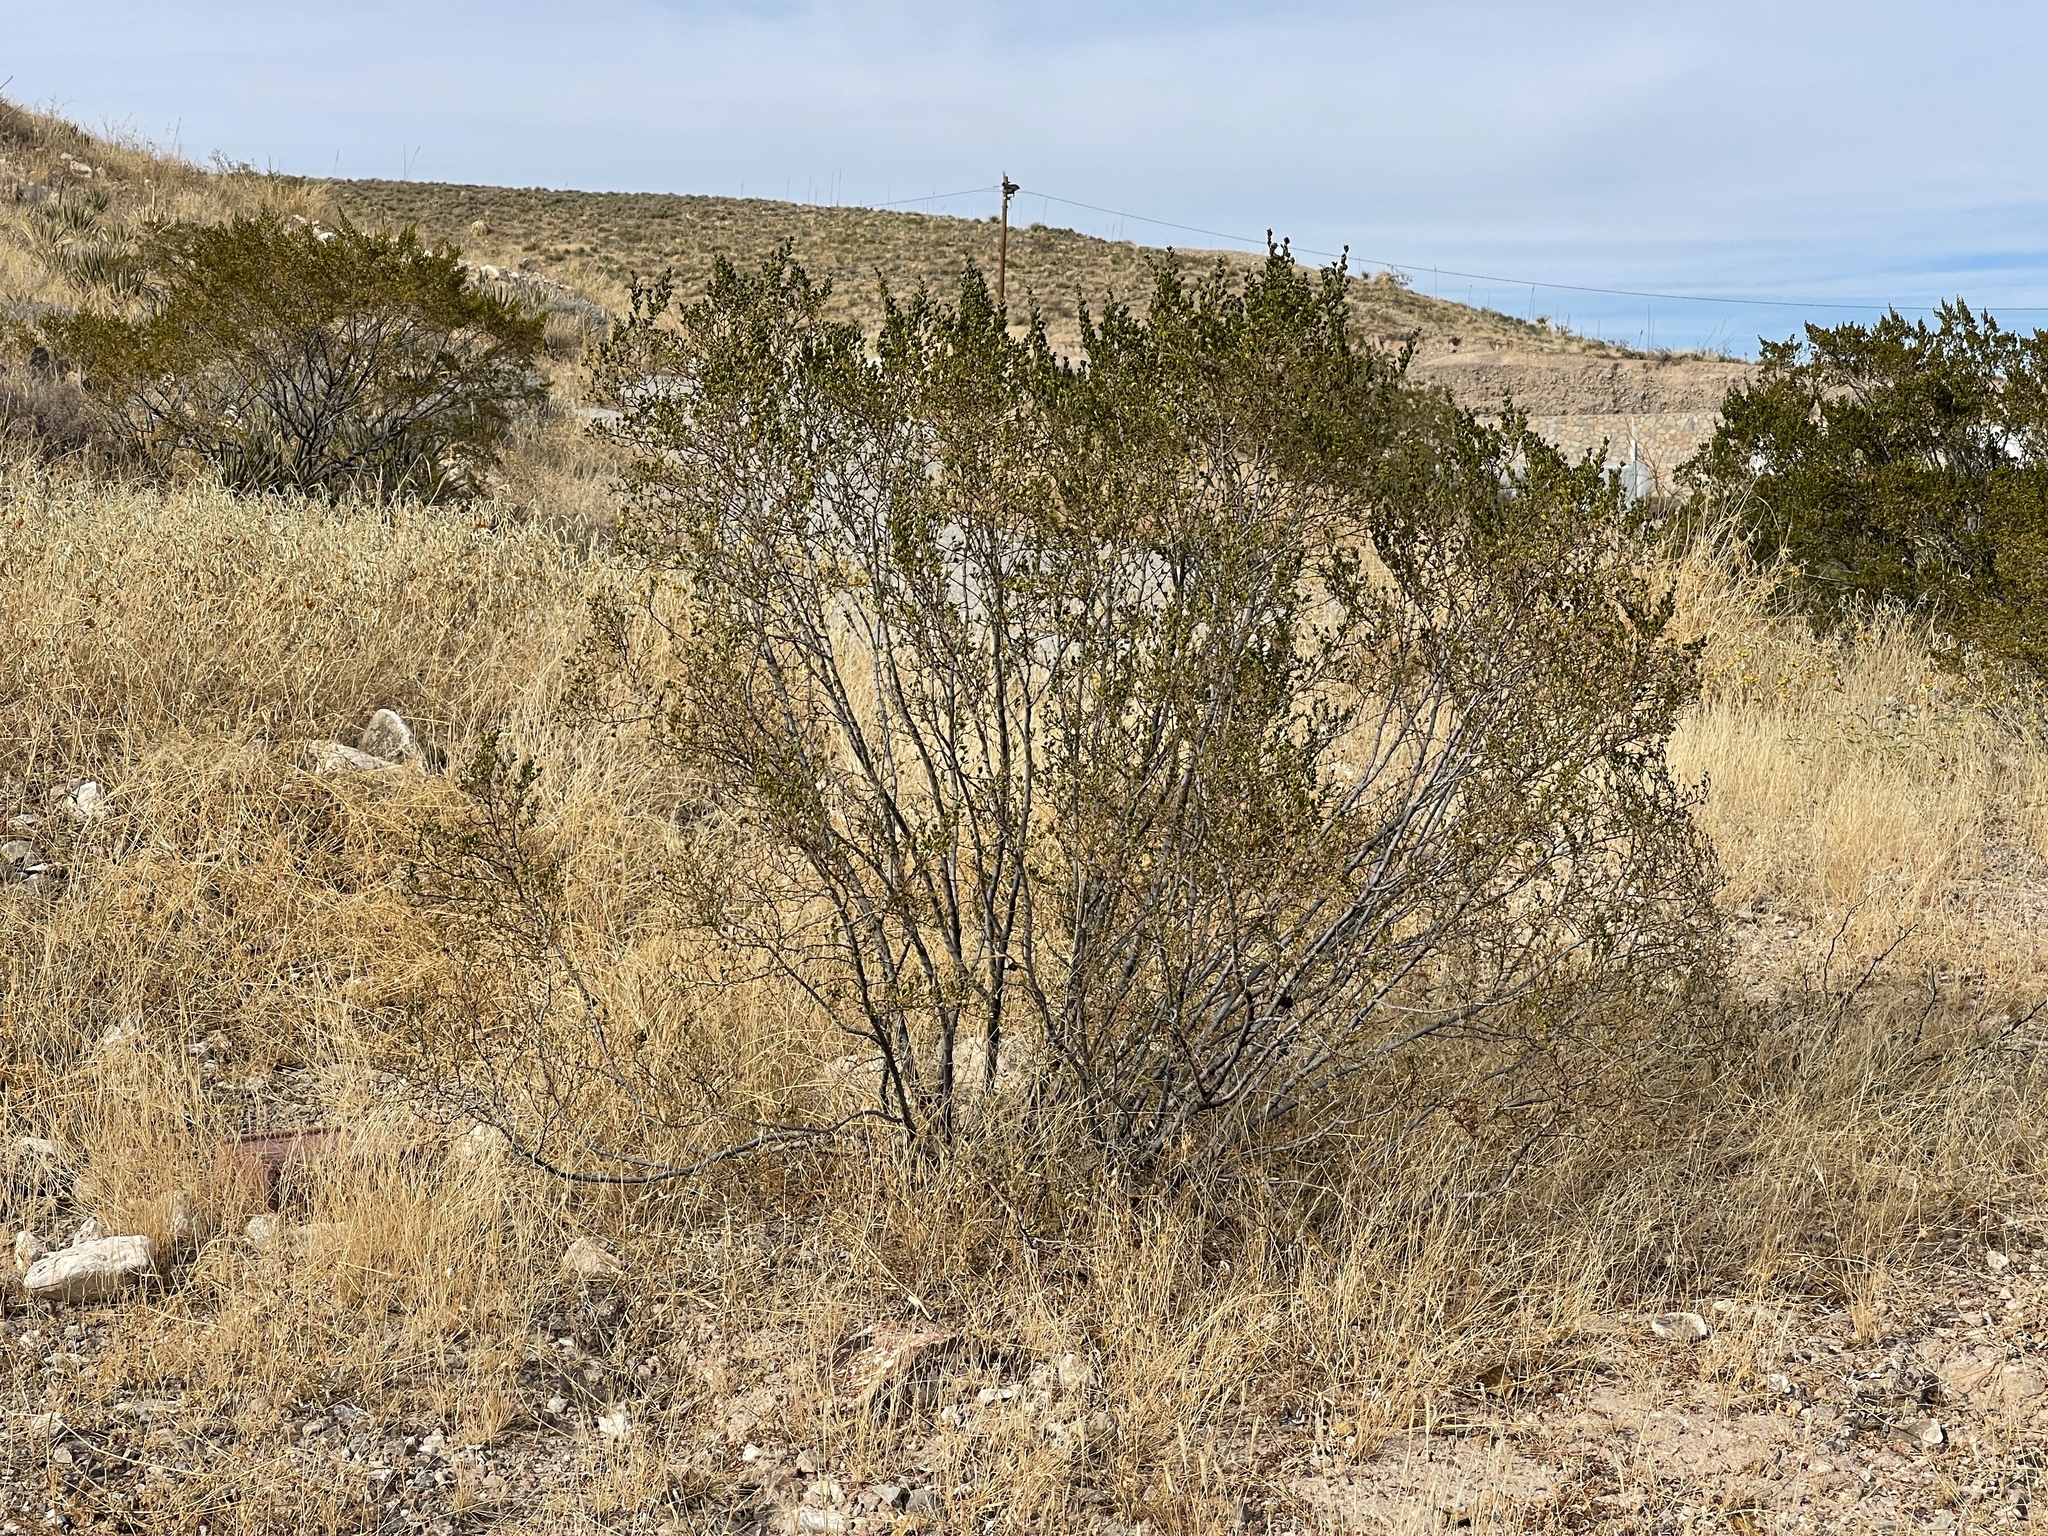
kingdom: Plantae
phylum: Tracheophyta
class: Magnoliopsida
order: Zygophyllales
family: Zygophyllaceae
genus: Larrea
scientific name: Larrea tridentata
